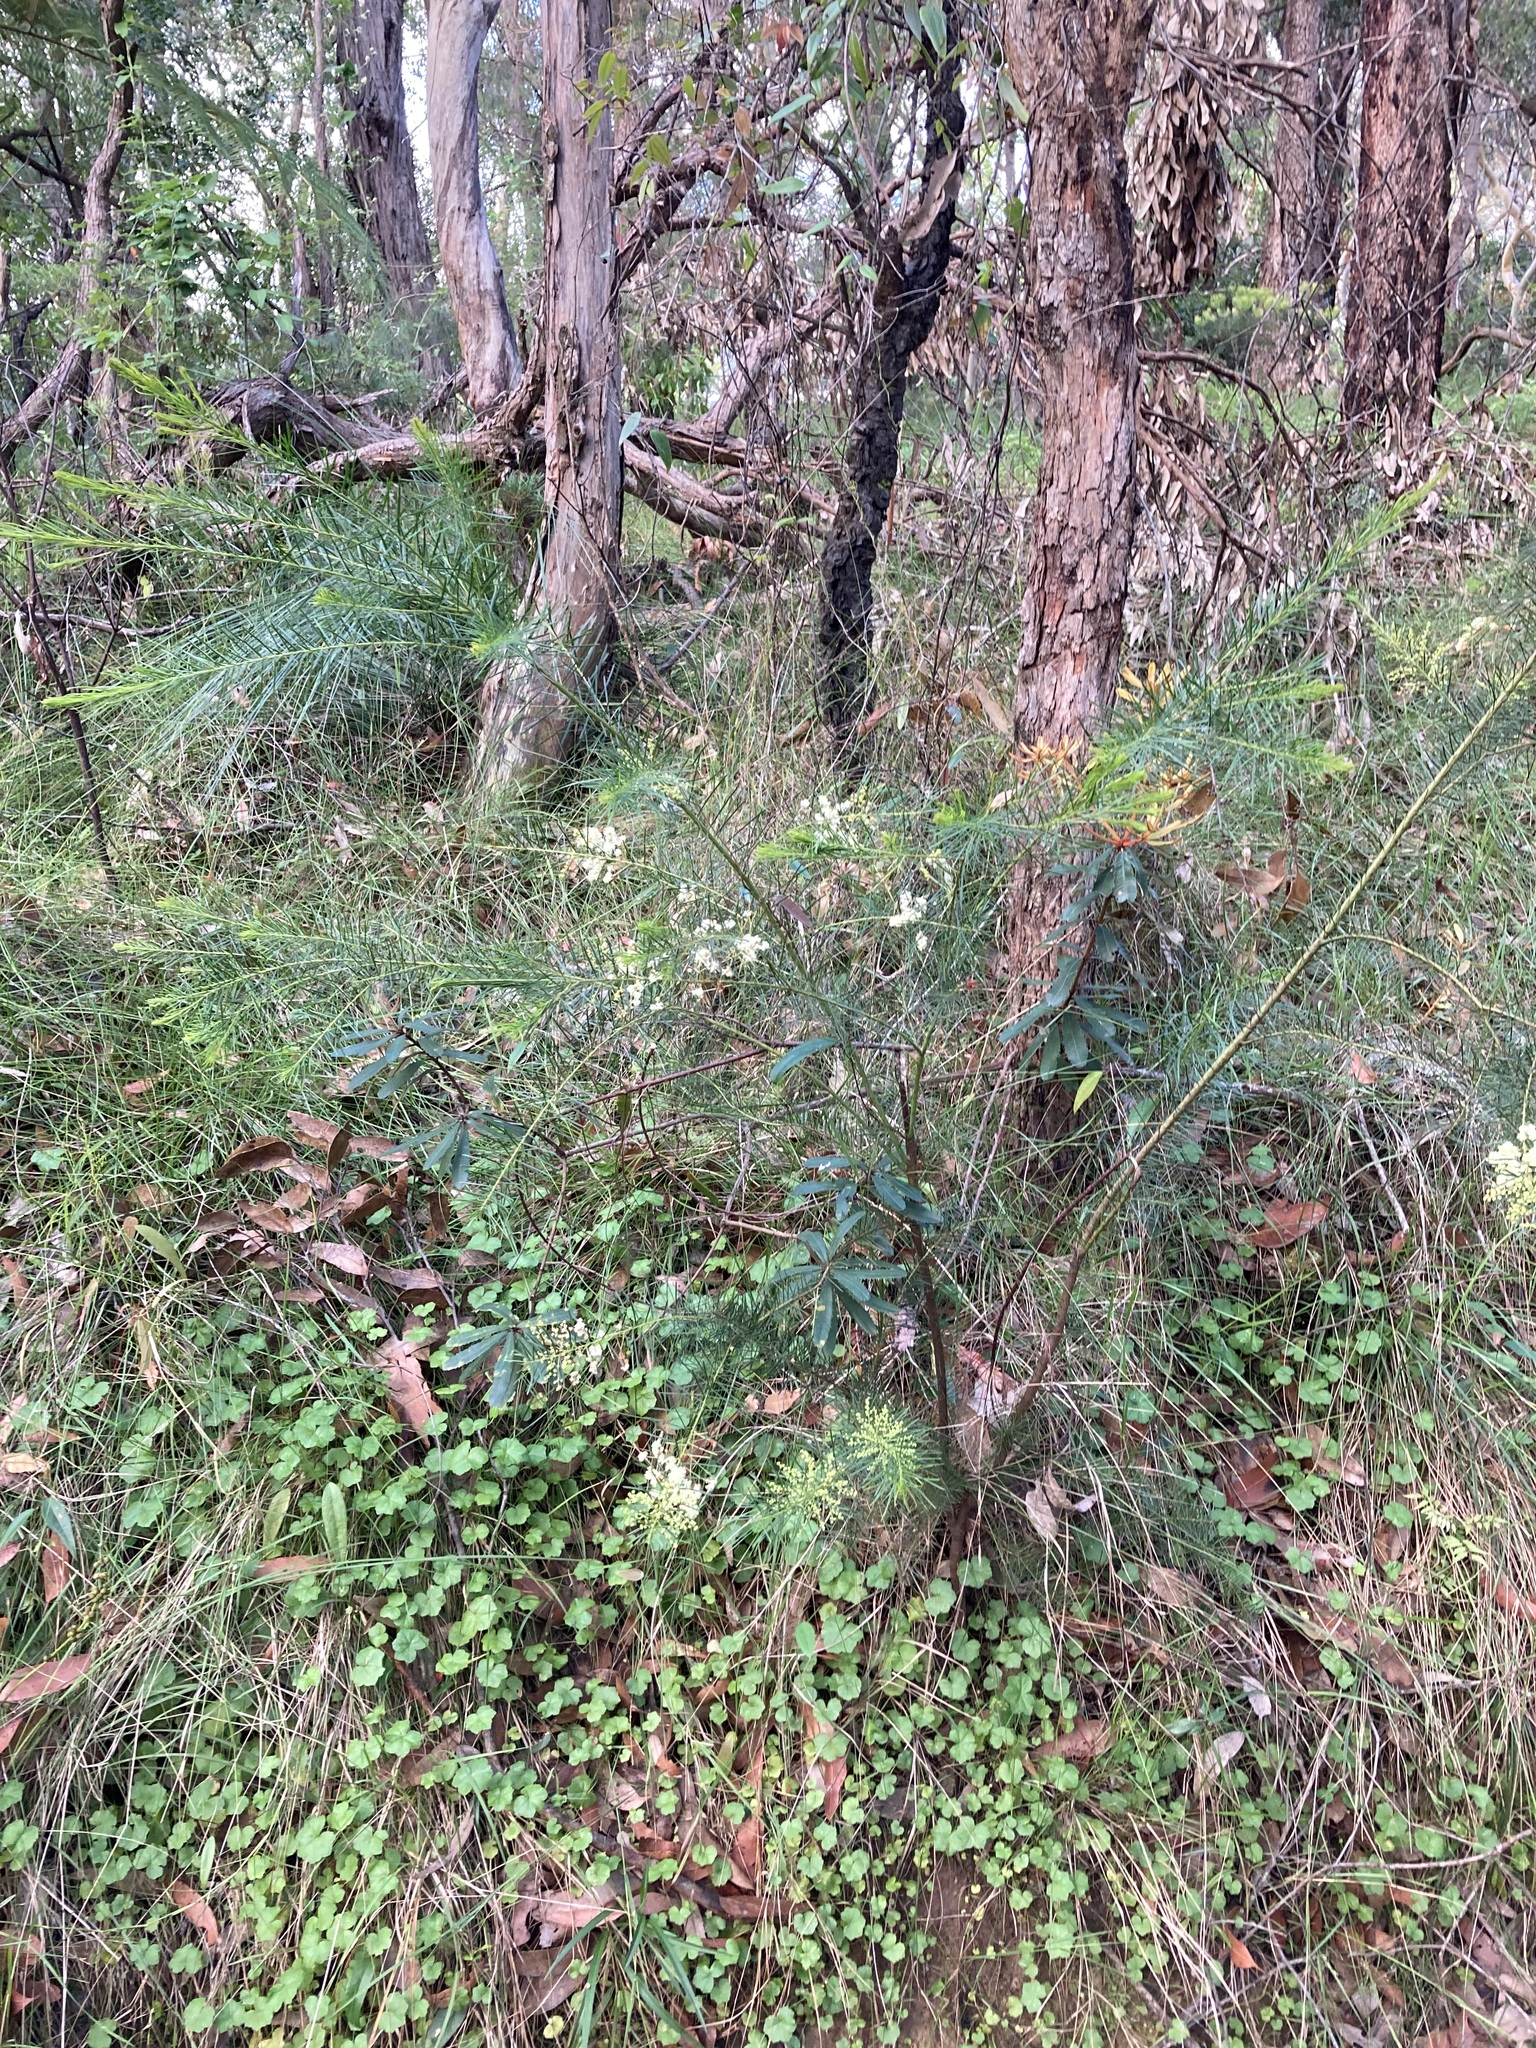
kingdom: Plantae
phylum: Tracheophyta
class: Magnoliopsida
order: Fabales
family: Fabaceae
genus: Acacia
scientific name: Acacia linifolia
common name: White wattle
